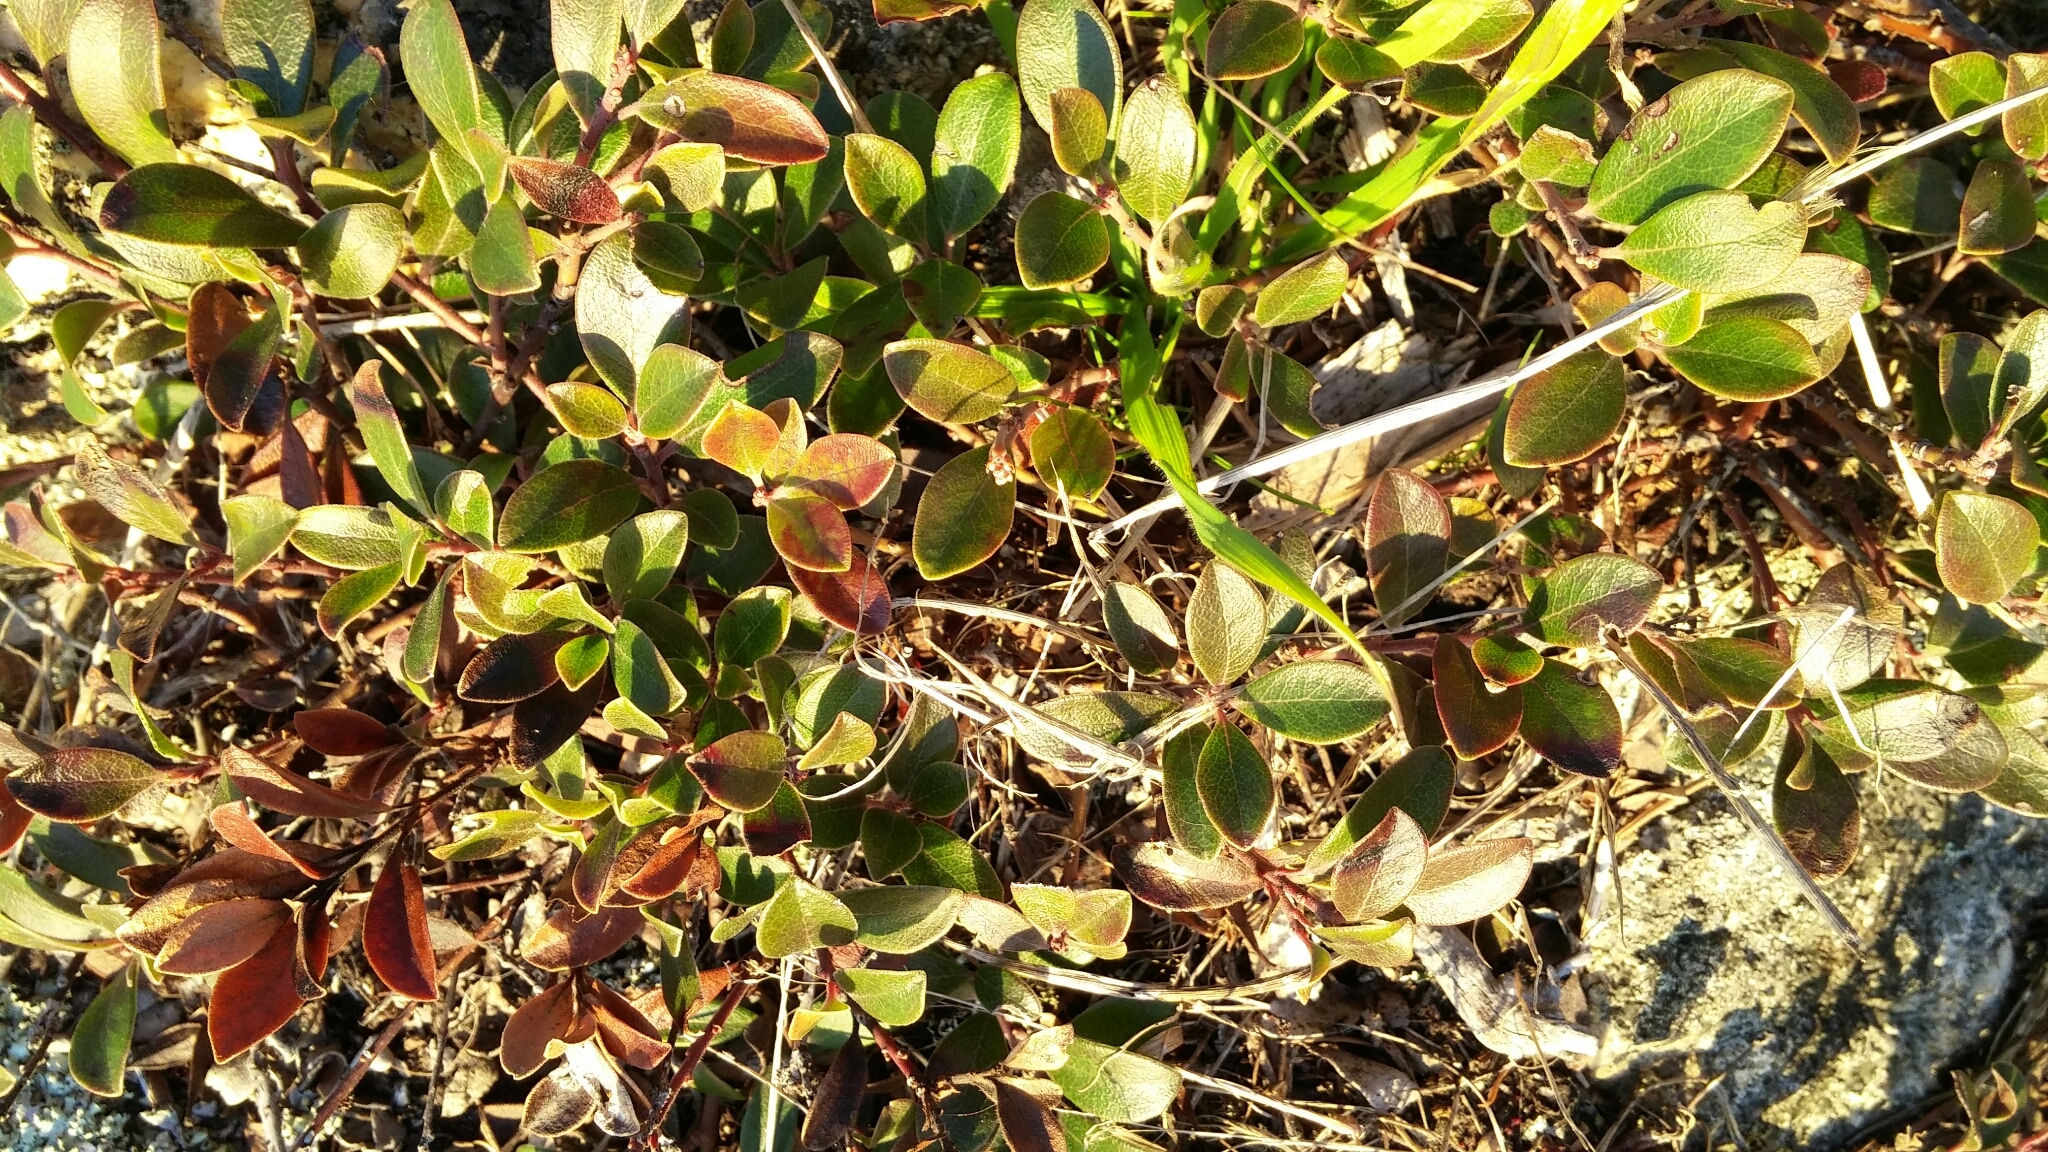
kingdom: Plantae
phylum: Tracheophyta
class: Magnoliopsida
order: Ericales
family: Ericaceae
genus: Arctostaphylos
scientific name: Arctostaphylos uva-ursi
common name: Bearberry
